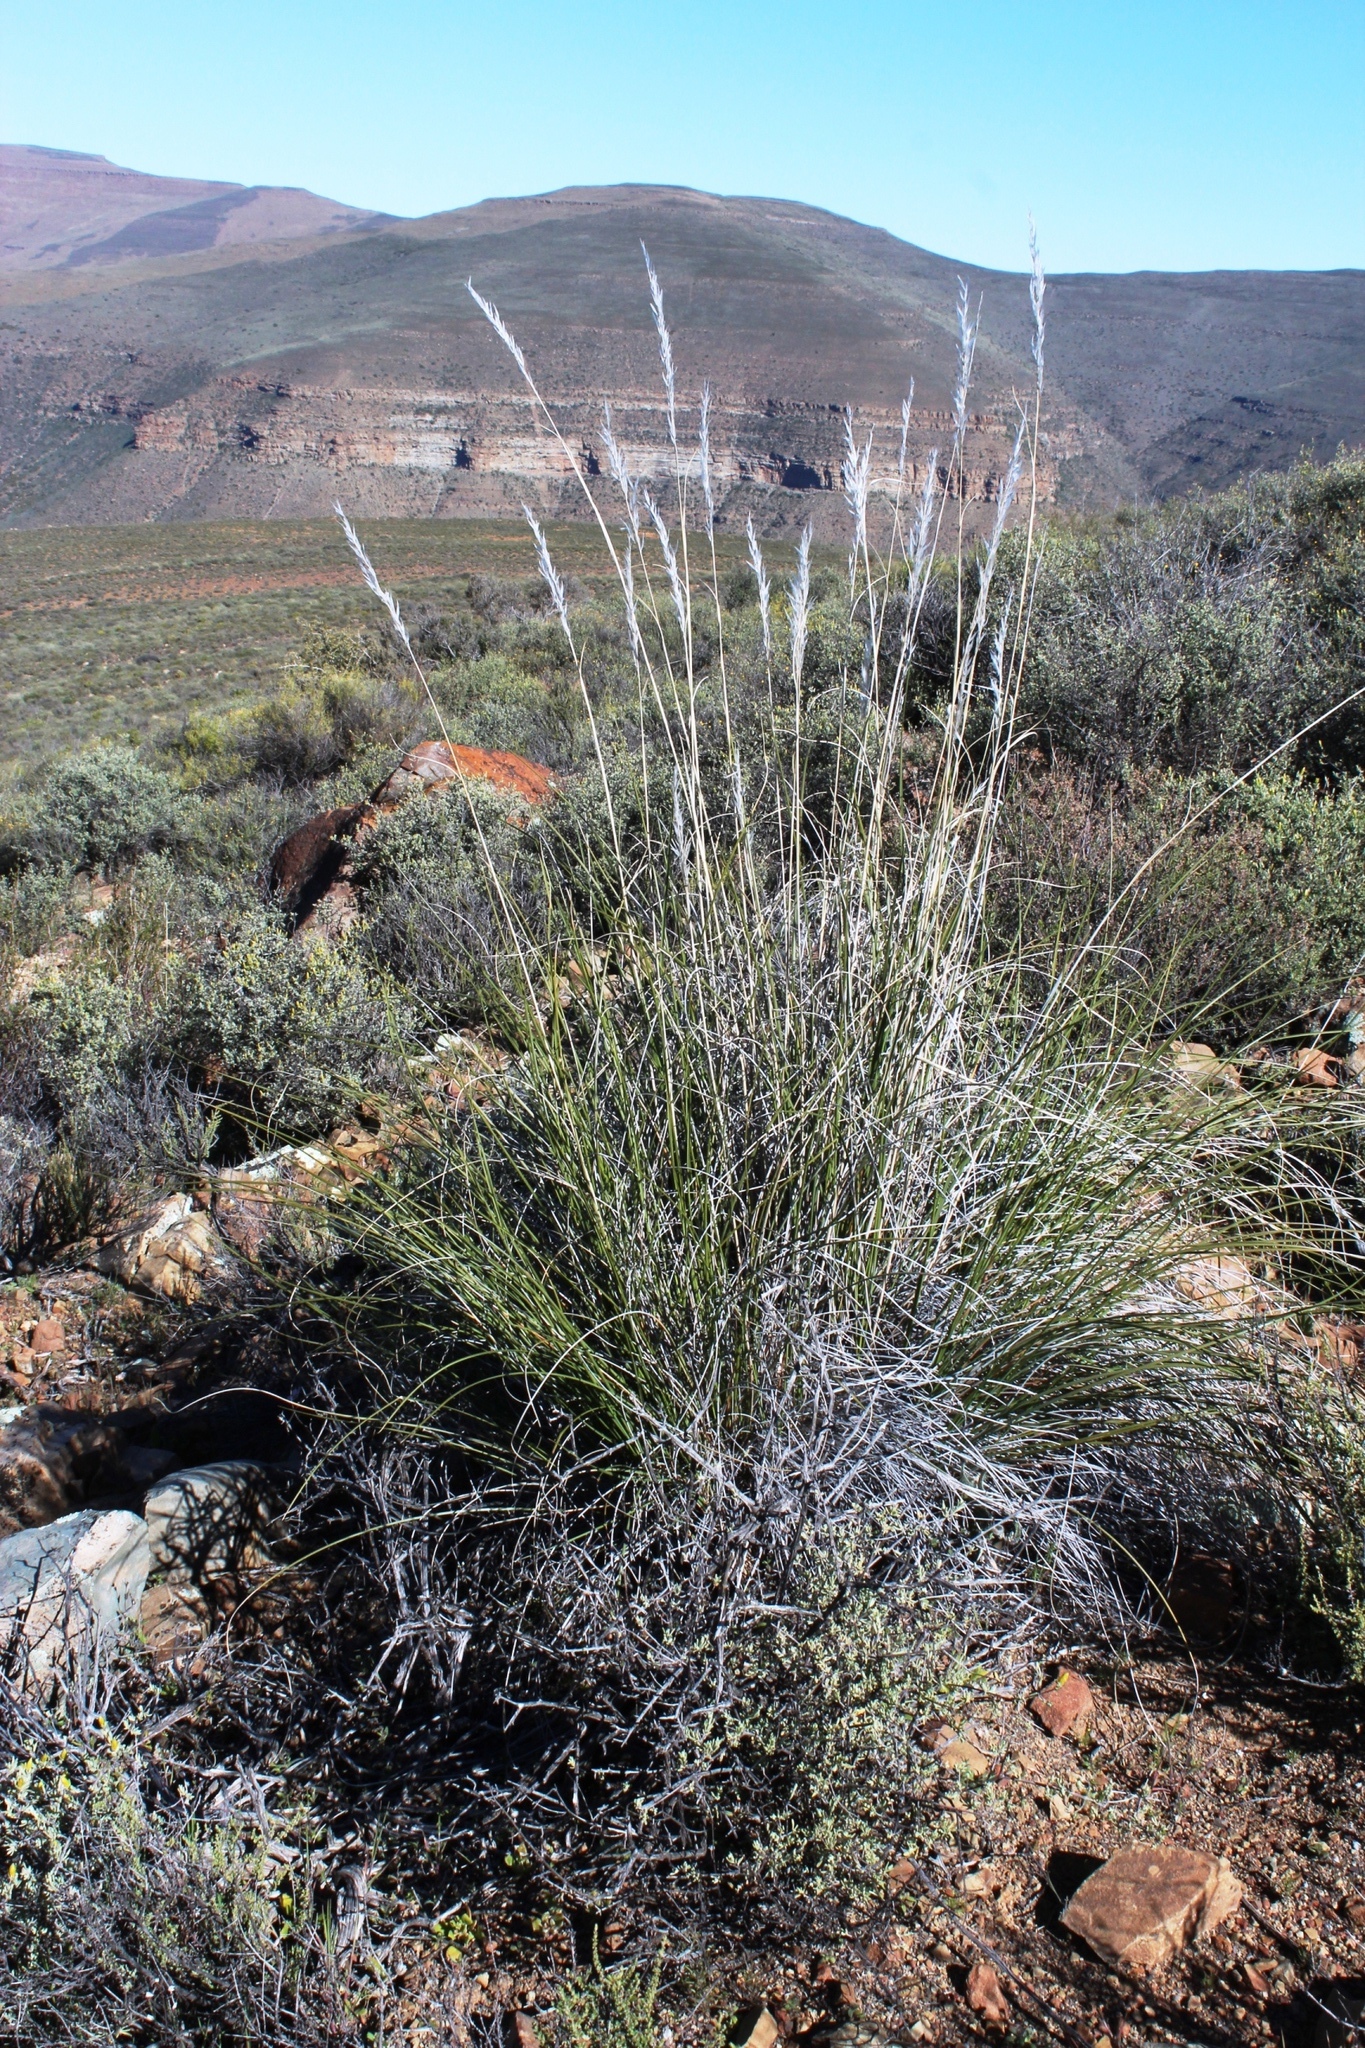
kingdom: Plantae
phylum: Tracheophyta
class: Liliopsida
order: Poales
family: Poaceae
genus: Tenaxia
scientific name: Tenaxia stricta
